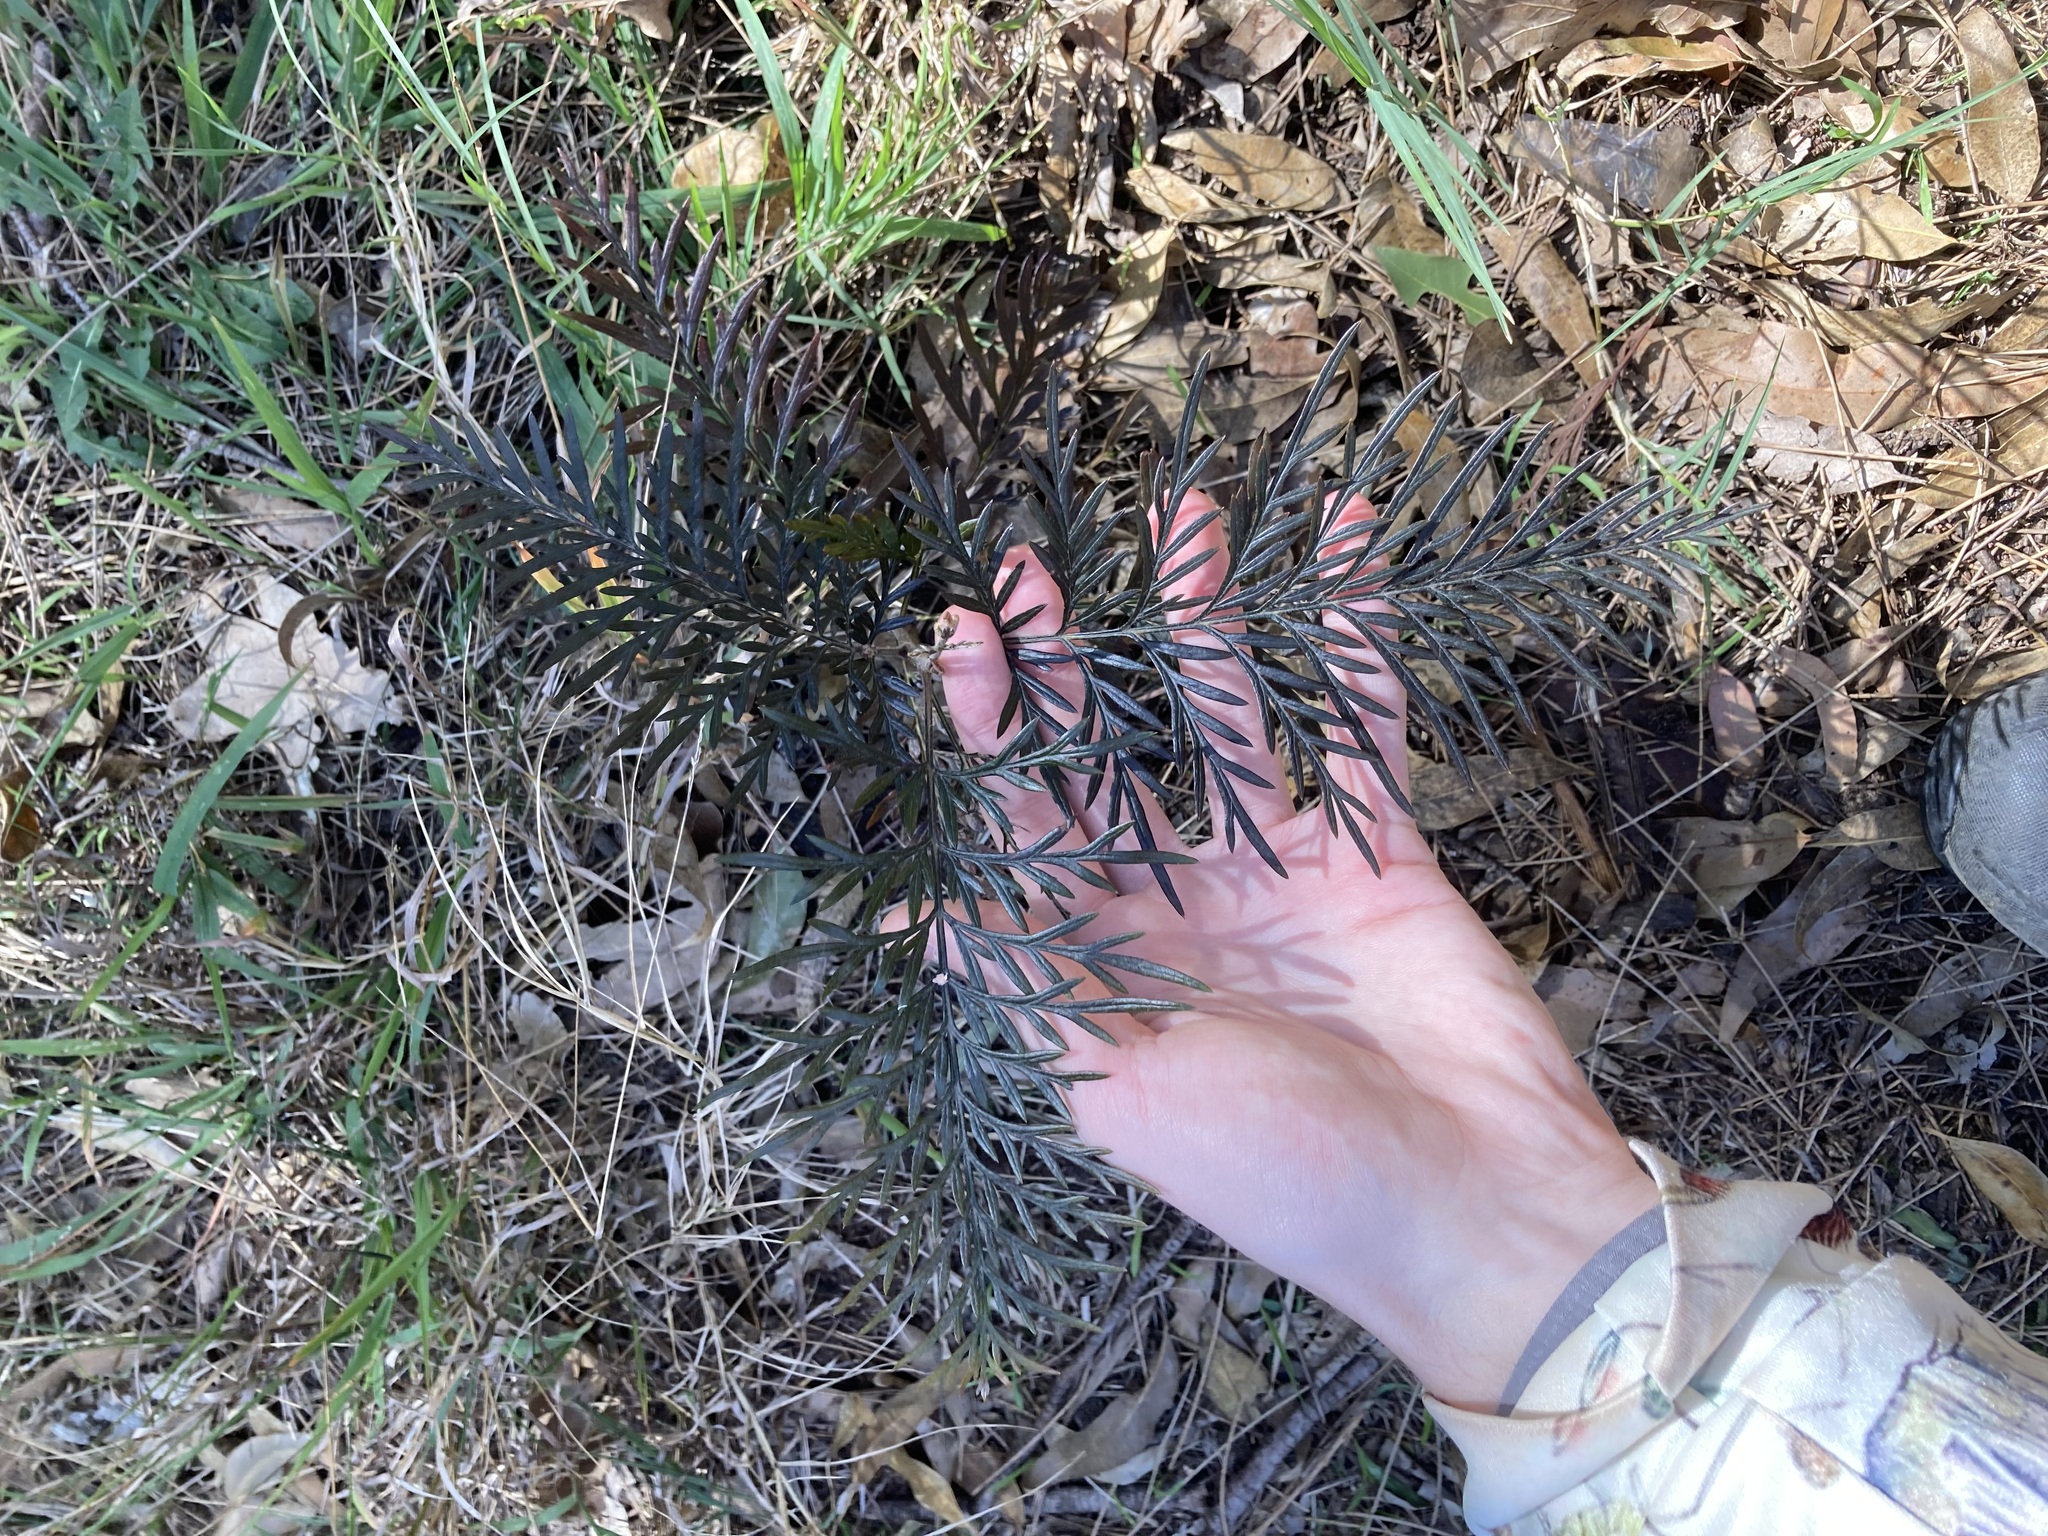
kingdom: Plantae
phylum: Tracheophyta
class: Magnoliopsida
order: Proteales
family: Proteaceae
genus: Grevillea
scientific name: Grevillea robusta
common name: Silkoak
